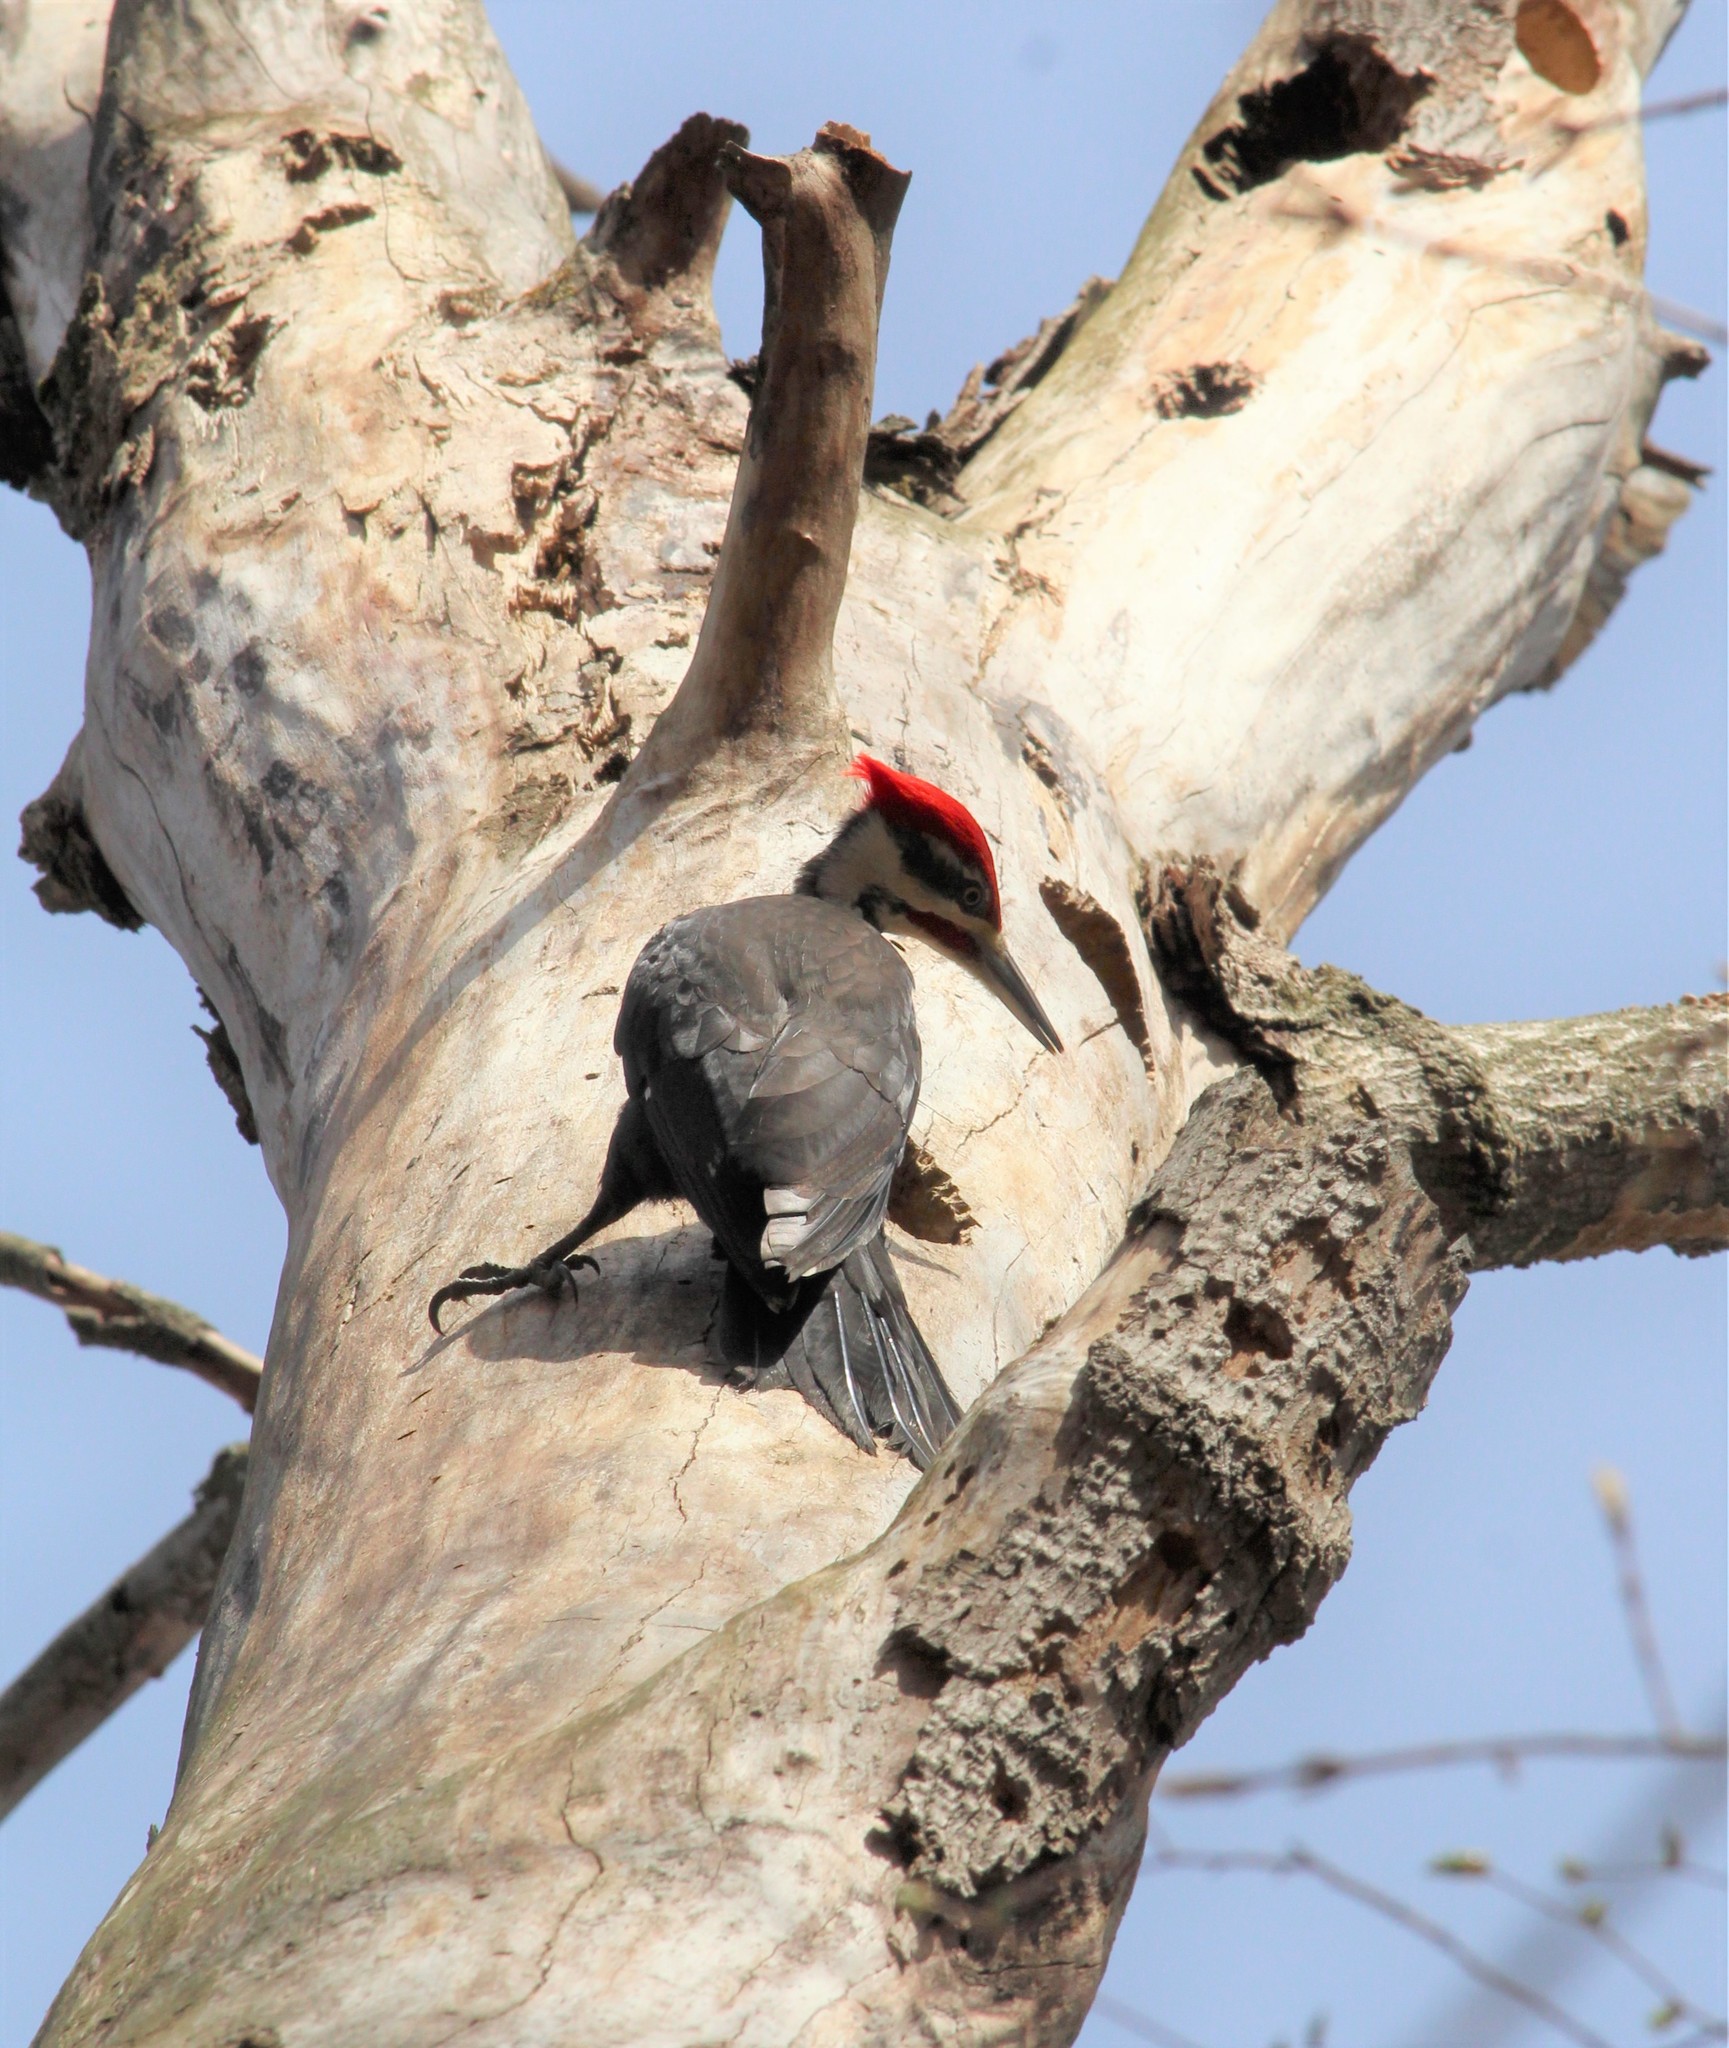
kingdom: Animalia
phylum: Chordata
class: Aves
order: Piciformes
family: Picidae
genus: Dryocopus
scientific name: Dryocopus pileatus
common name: Pileated woodpecker
